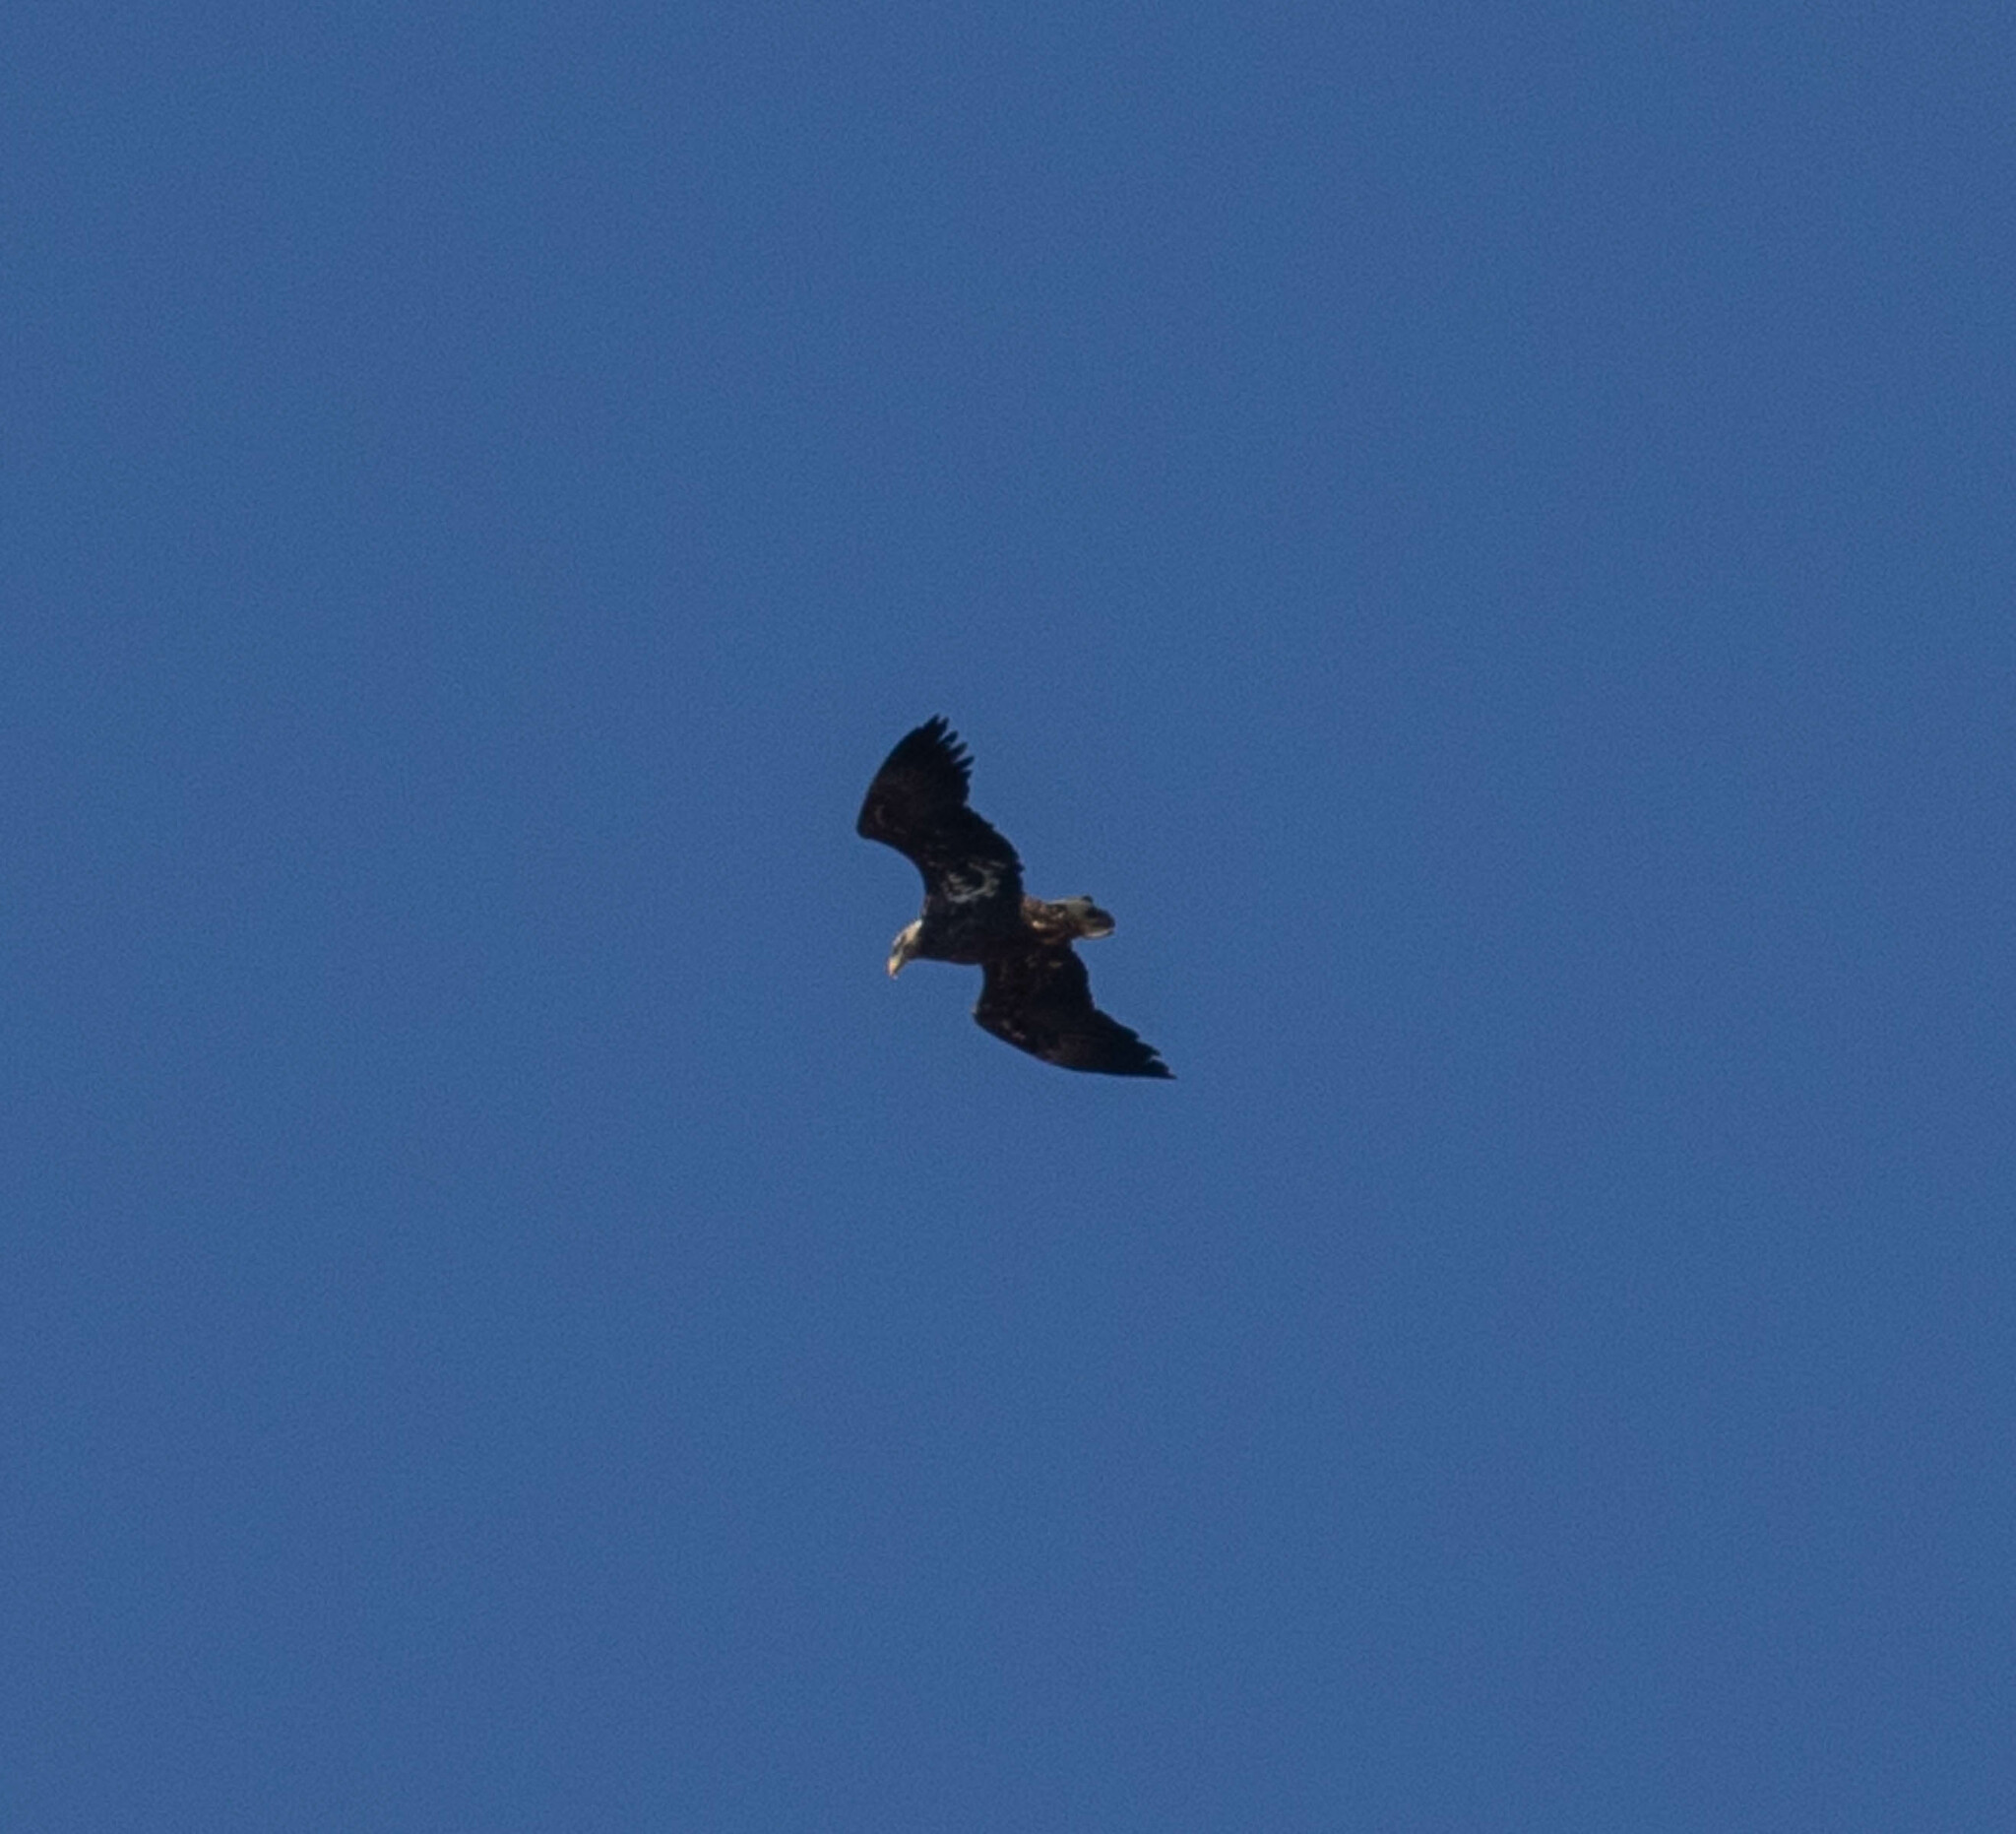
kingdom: Animalia
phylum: Chordata
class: Aves
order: Accipitriformes
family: Accipitridae
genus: Haliaeetus
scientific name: Haliaeetus leucocephalus
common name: Bald eagle
